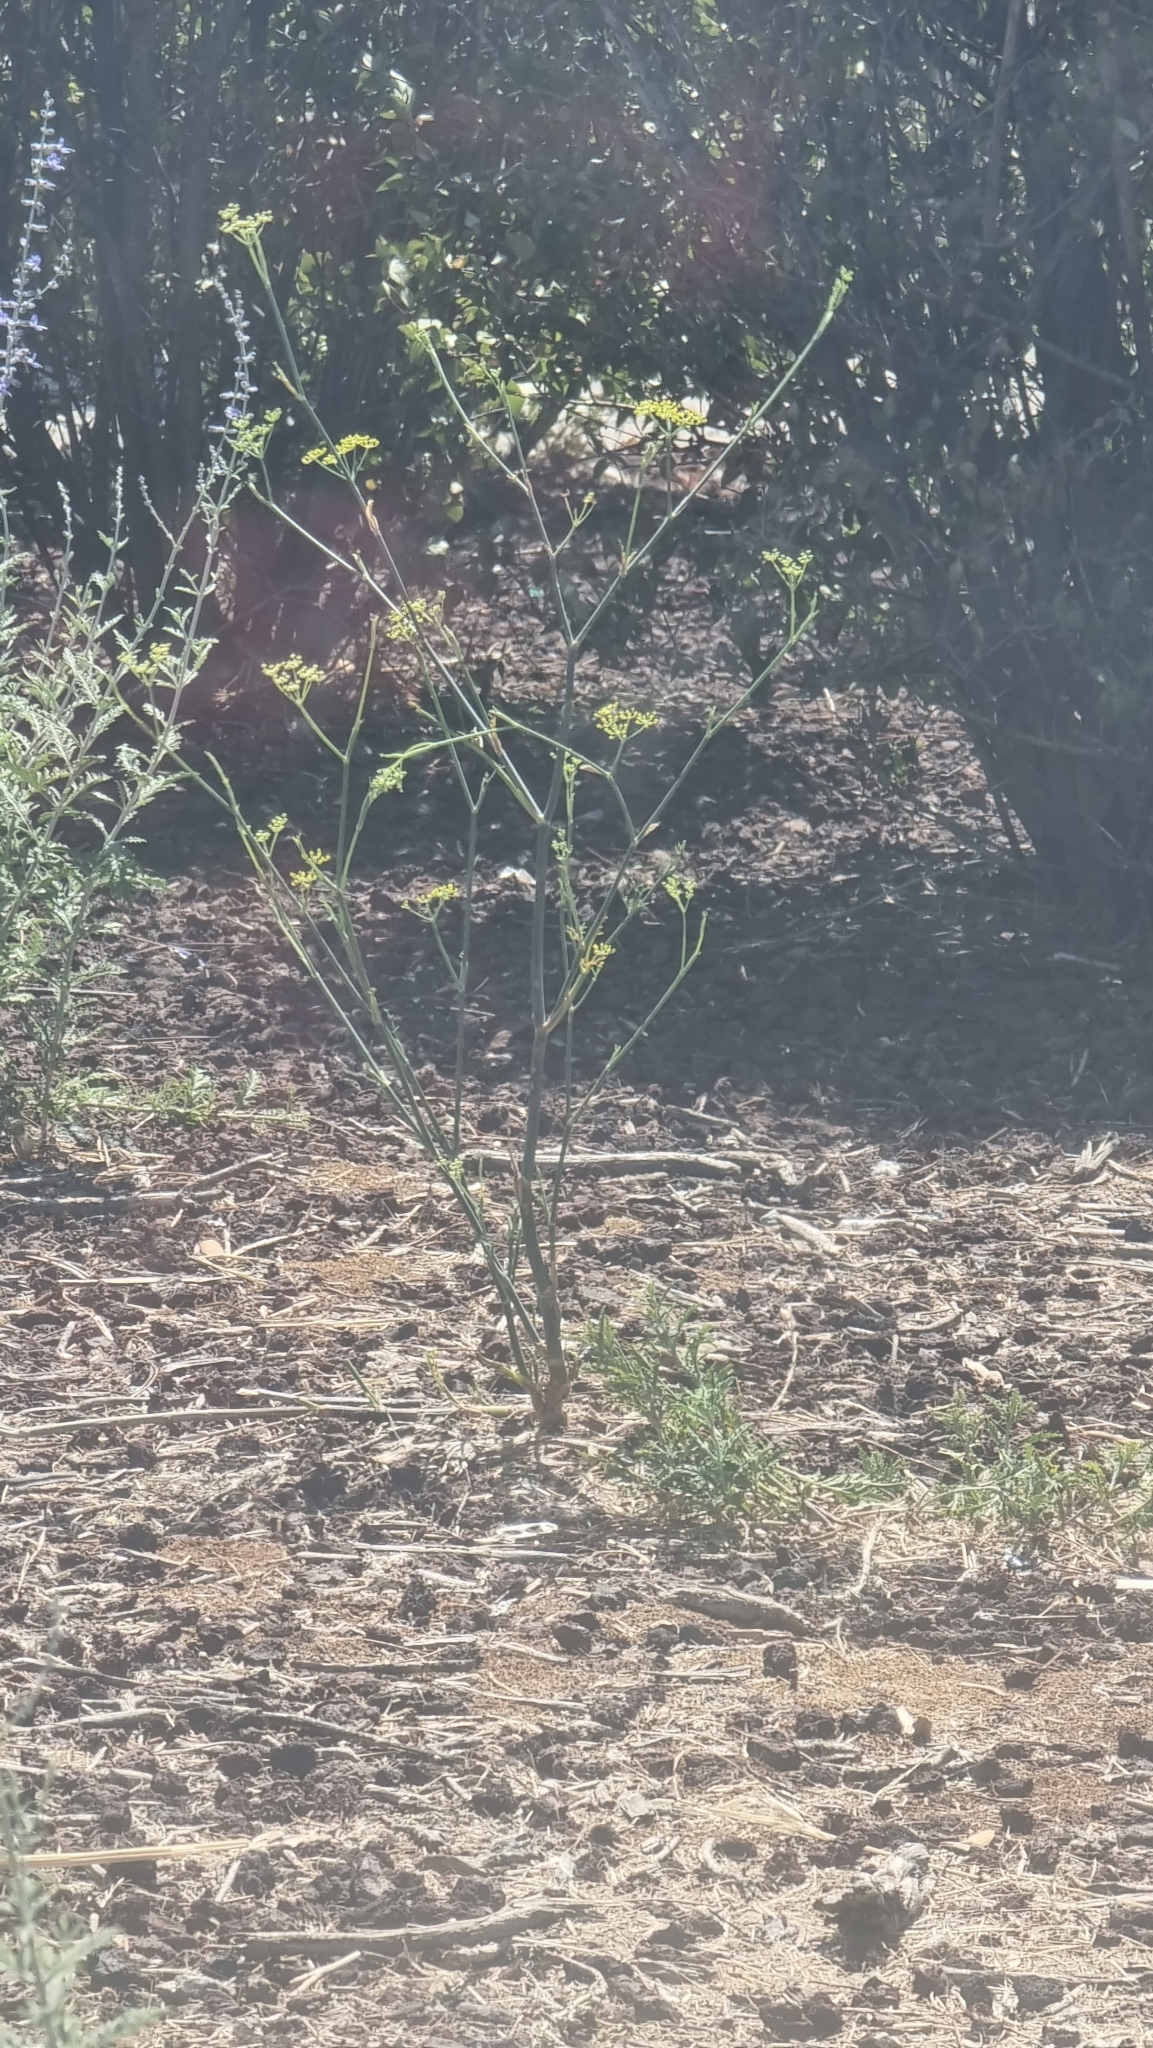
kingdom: Plantae
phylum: Tracheophyta
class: Magnoliopsida
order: Apiales
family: Apiaceae
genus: Foeniculum
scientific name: Foeniculum vulgare
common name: Fennel
